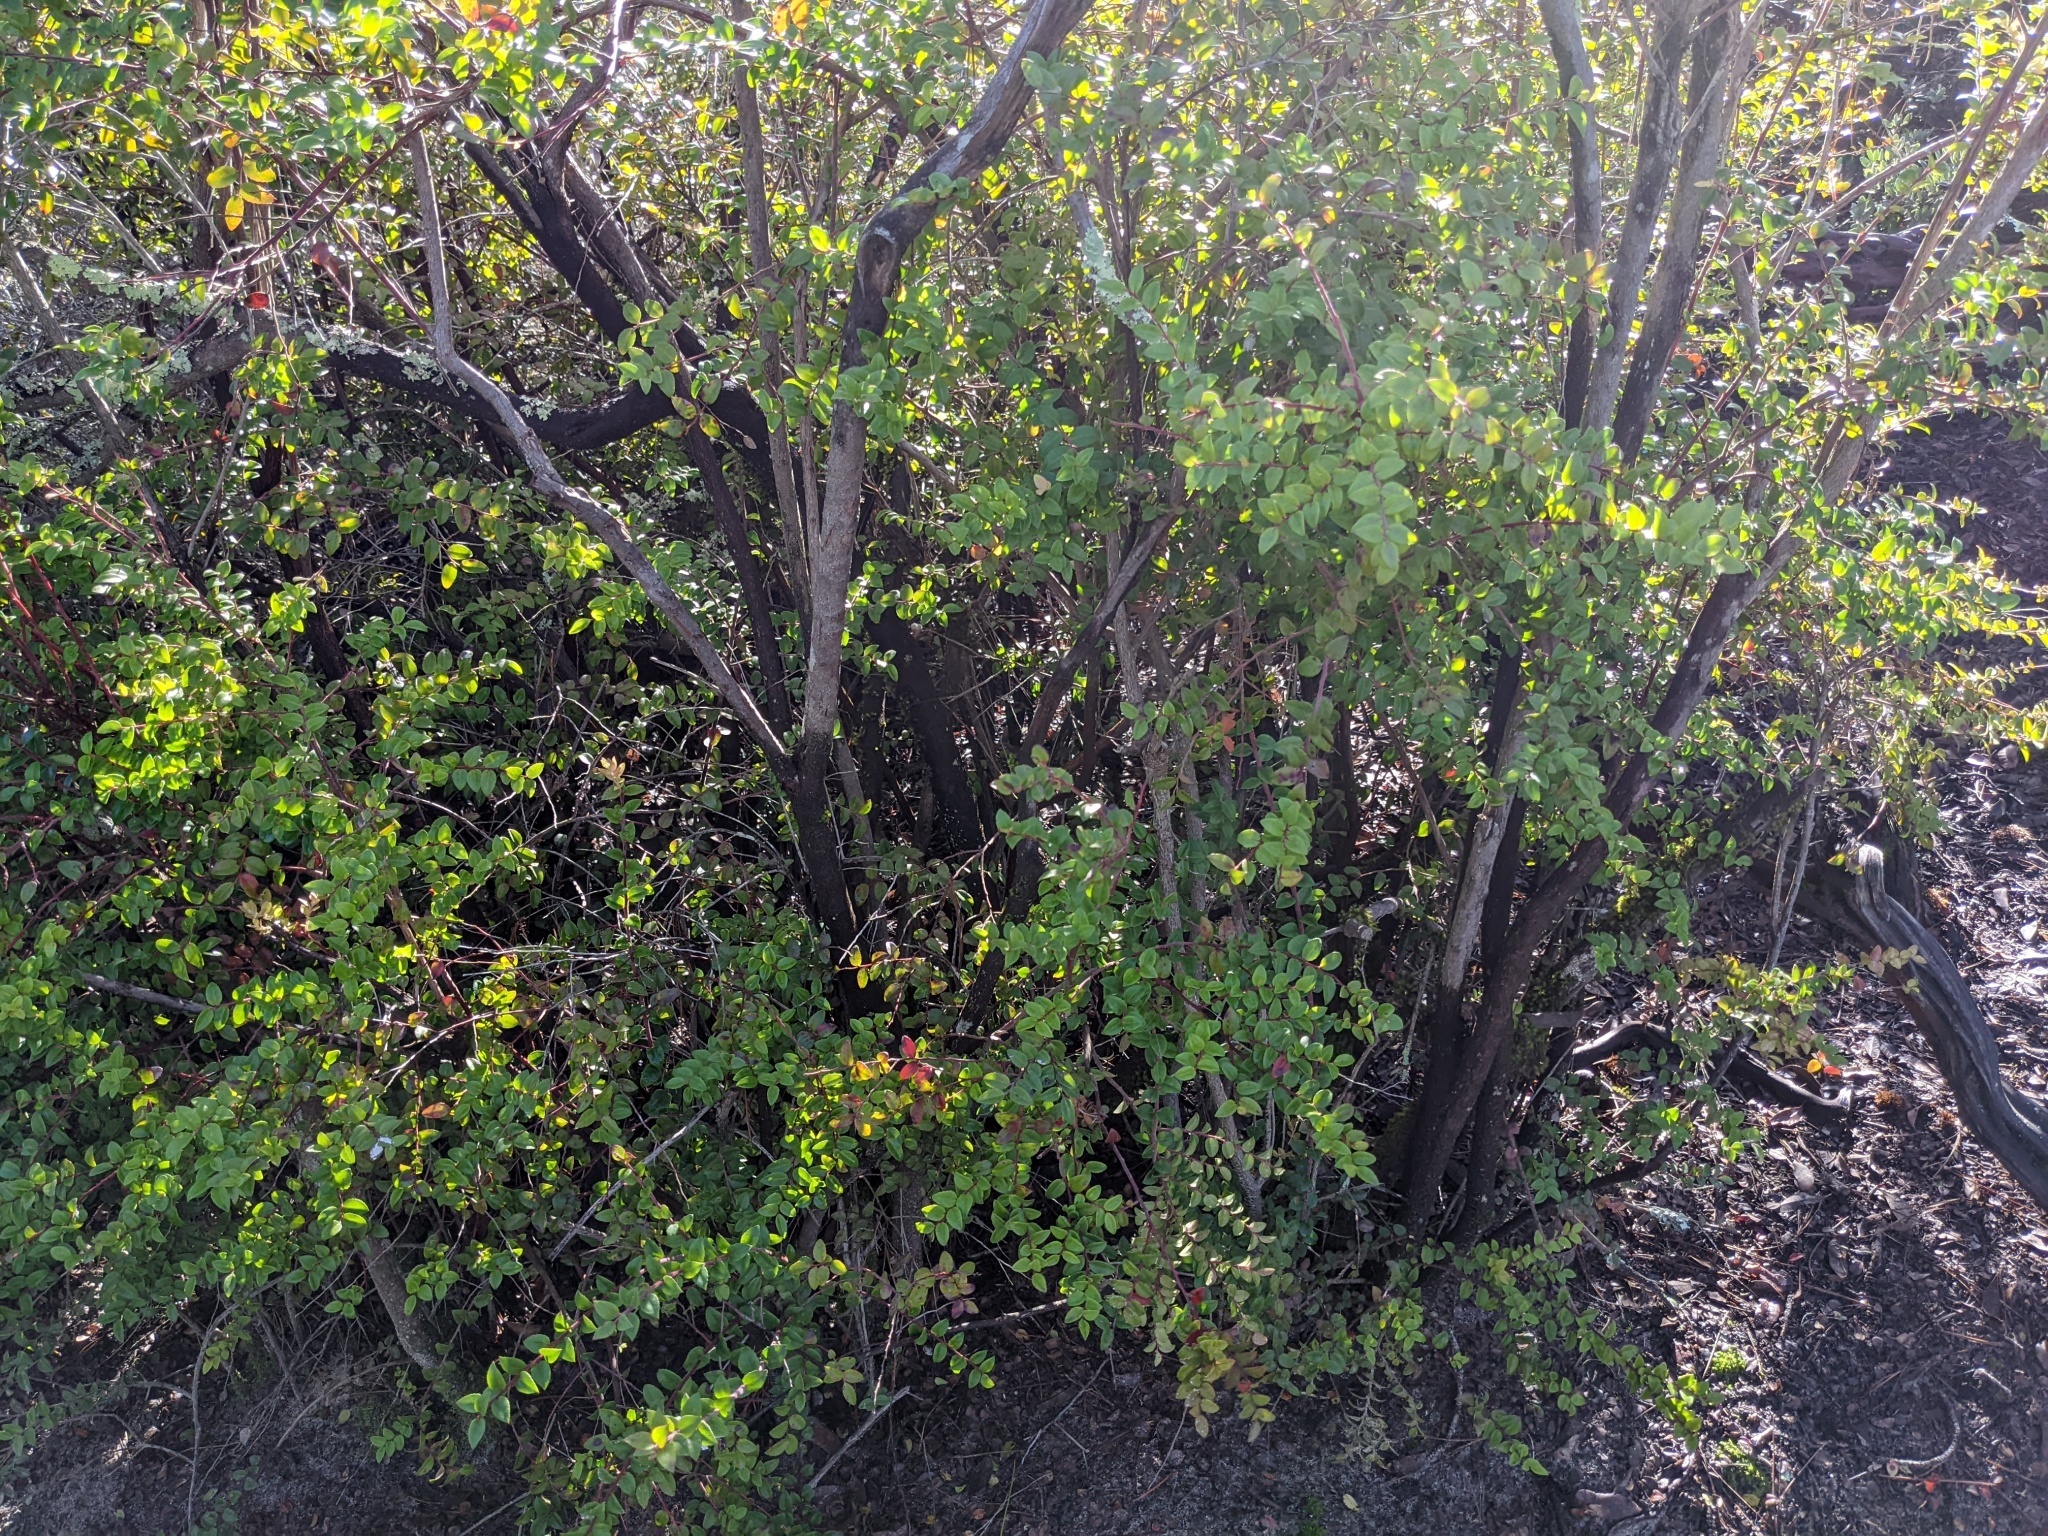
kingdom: Plantae
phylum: Tracheophyta
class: Magnoliopsida
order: Ericales
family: Ericaceae
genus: Vaccinium
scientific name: Vaccinium ovatum
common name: California-huckleberry
